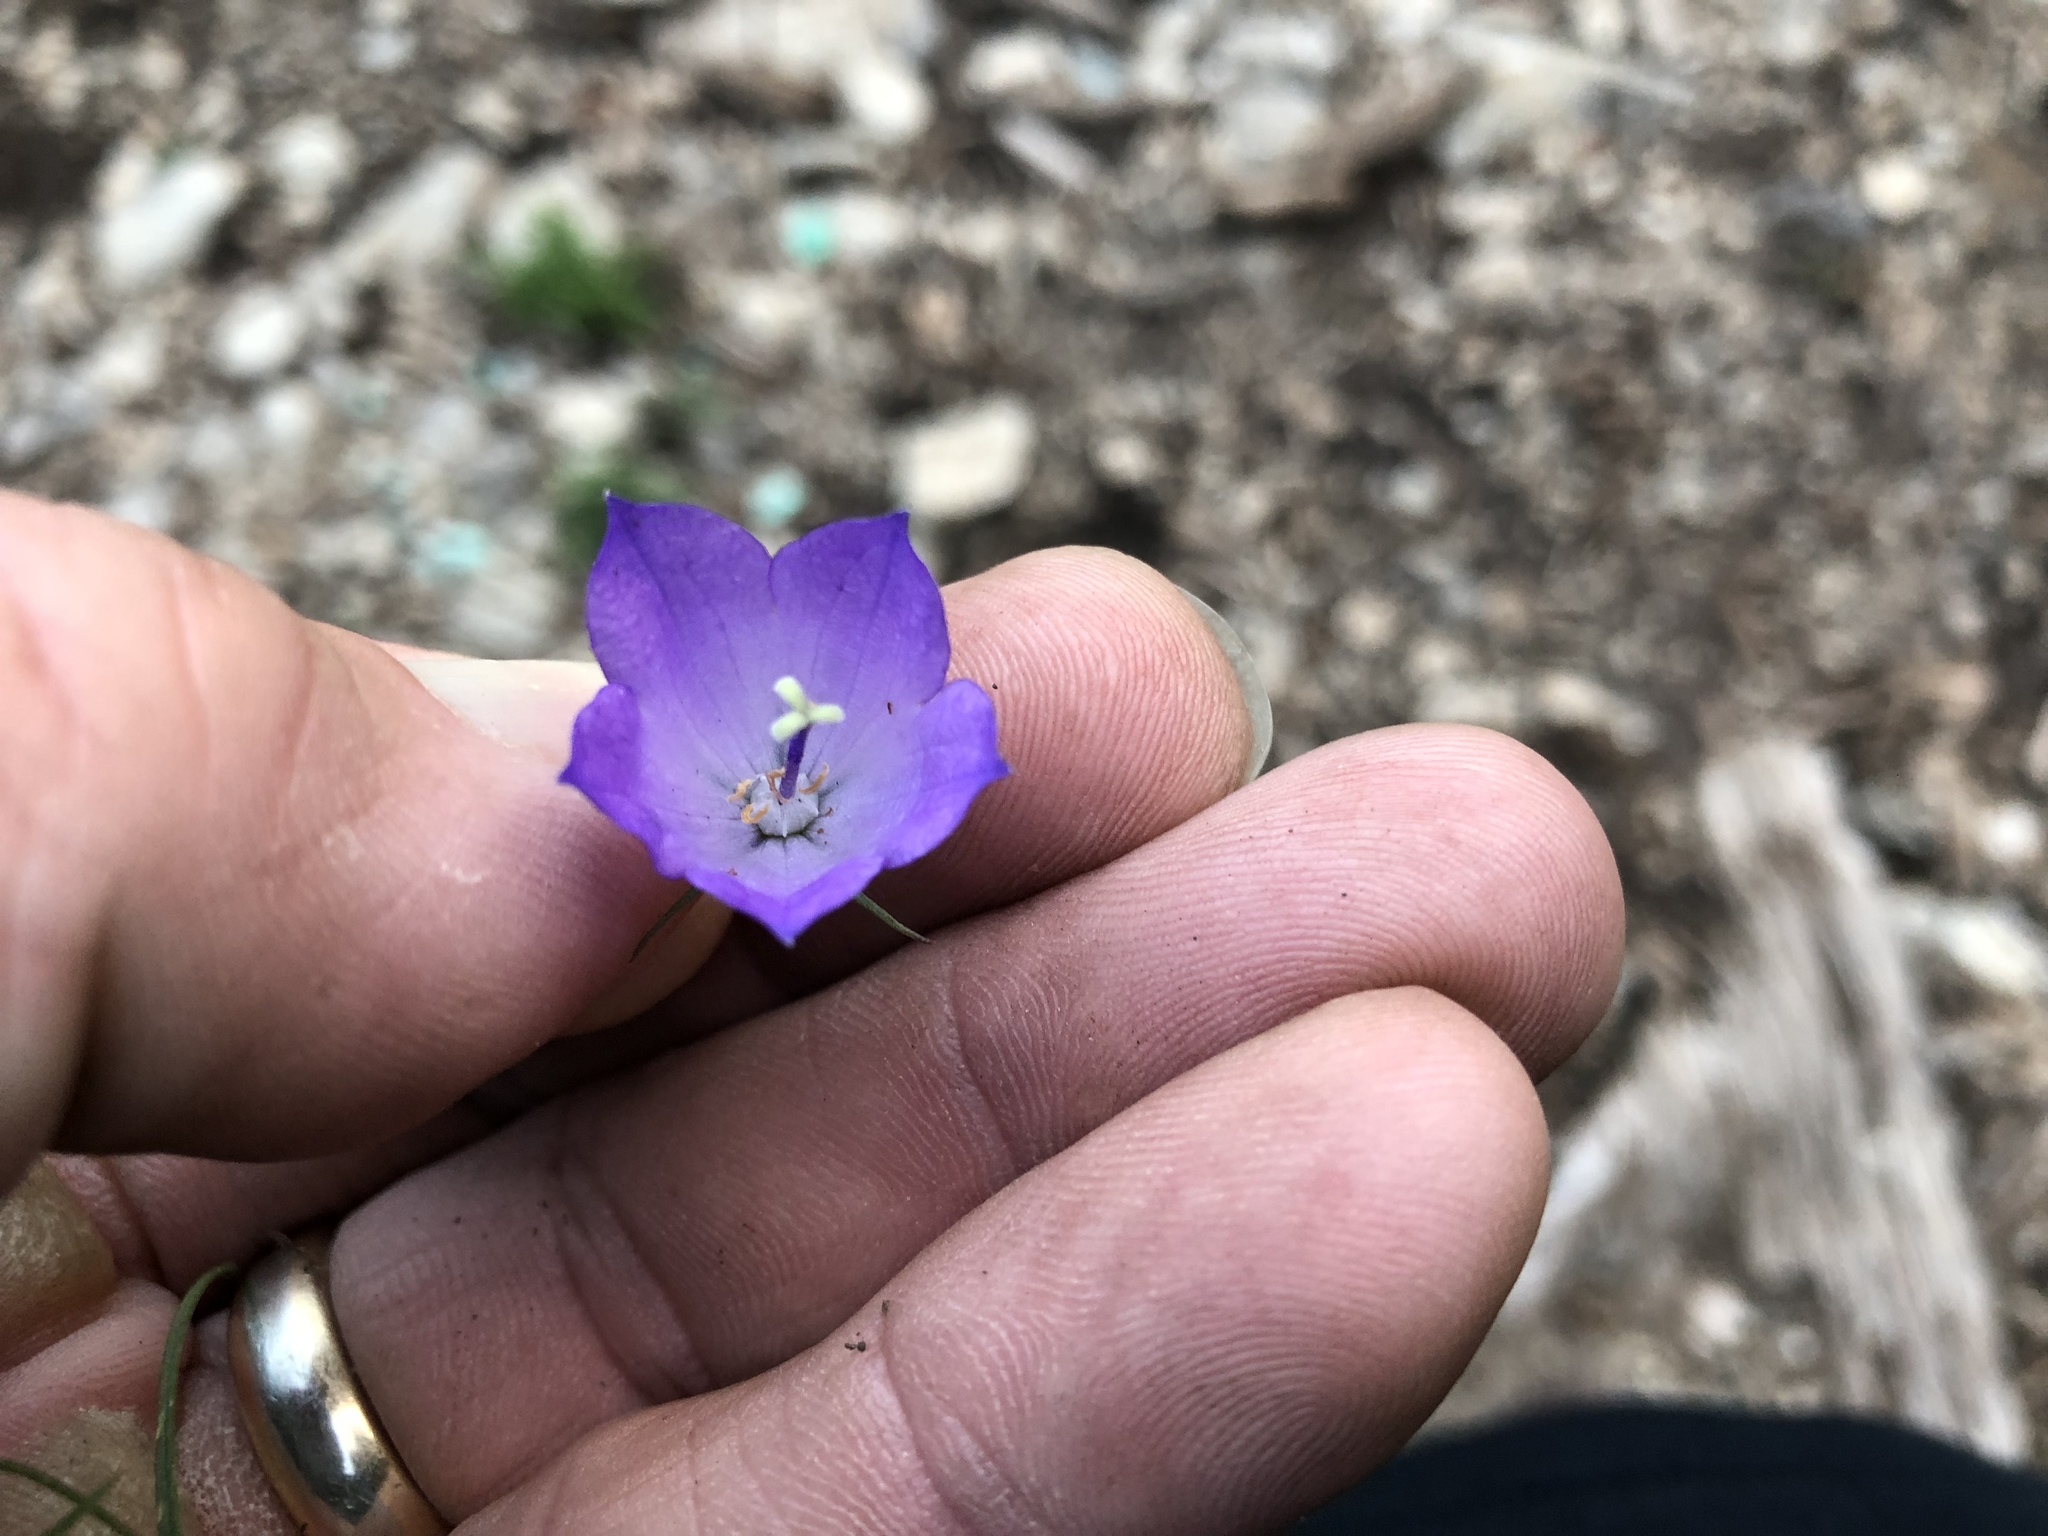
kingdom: Plantae
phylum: Tracheophyta
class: Magnoliopsida
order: Asterales
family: Campanulaceae
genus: Campanula
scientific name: Campanula petiolata
